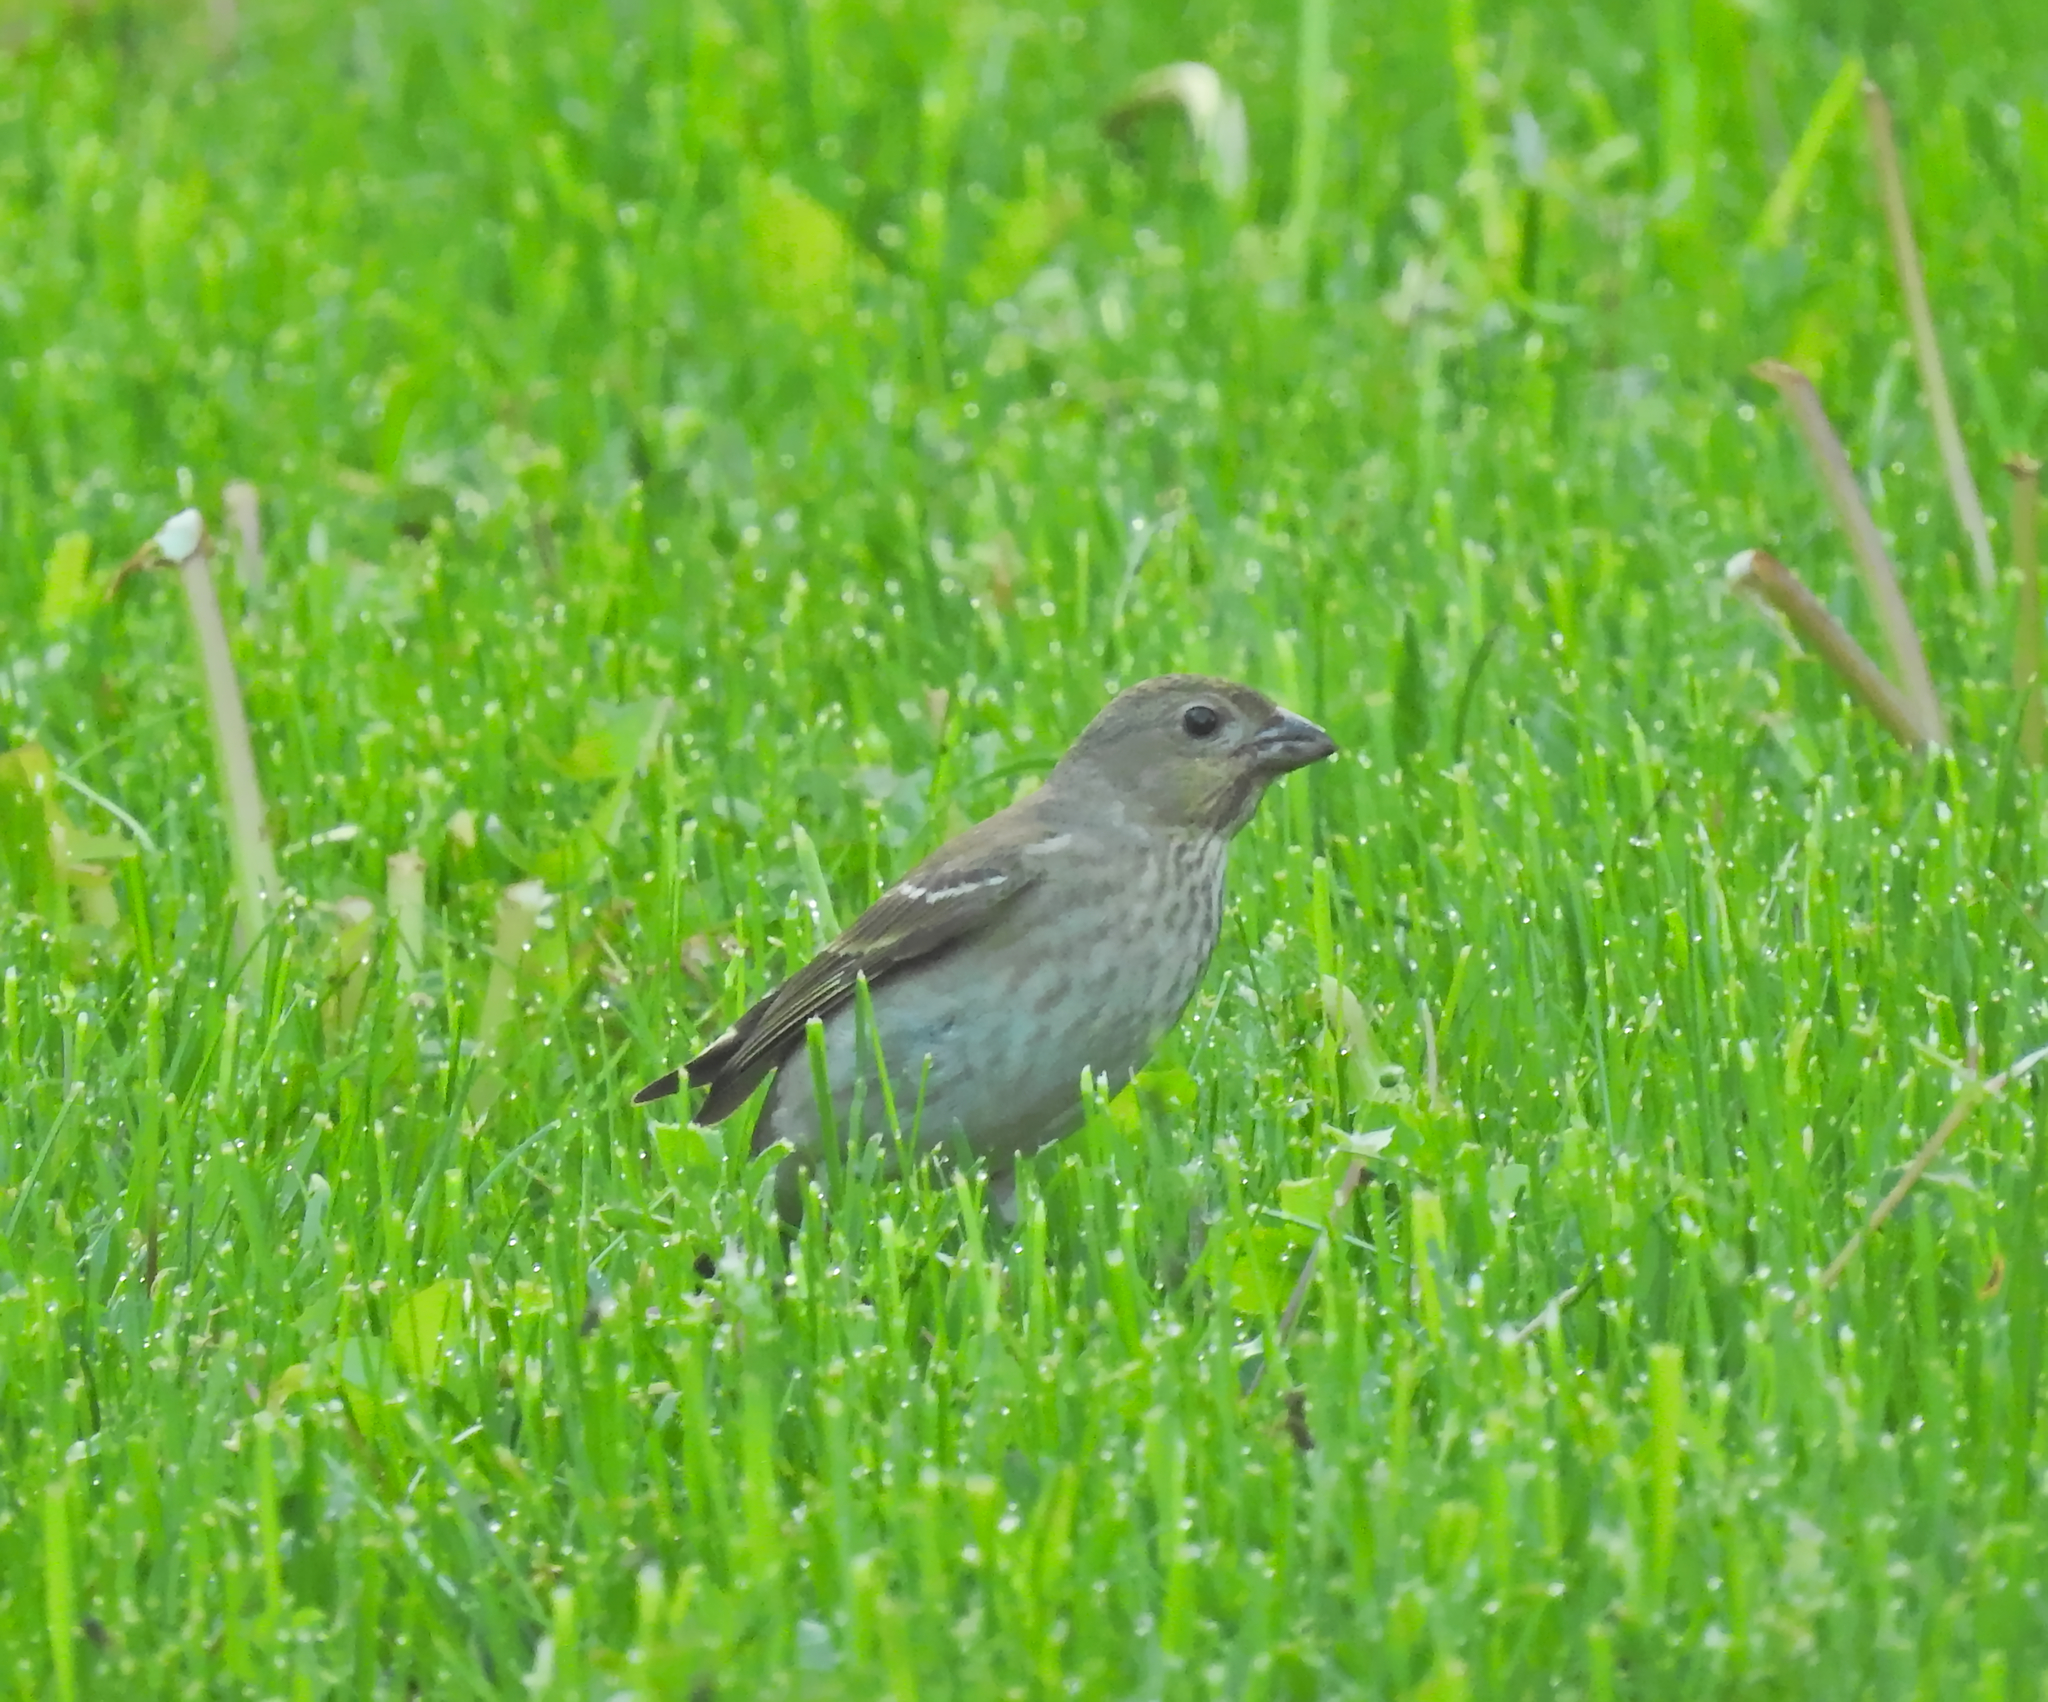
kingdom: Animalia
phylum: Chordata
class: Aves
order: Passeriformes
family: Fringillidae
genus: Carpodacus
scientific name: Carpodacus erythrinus
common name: Common rosefinch
